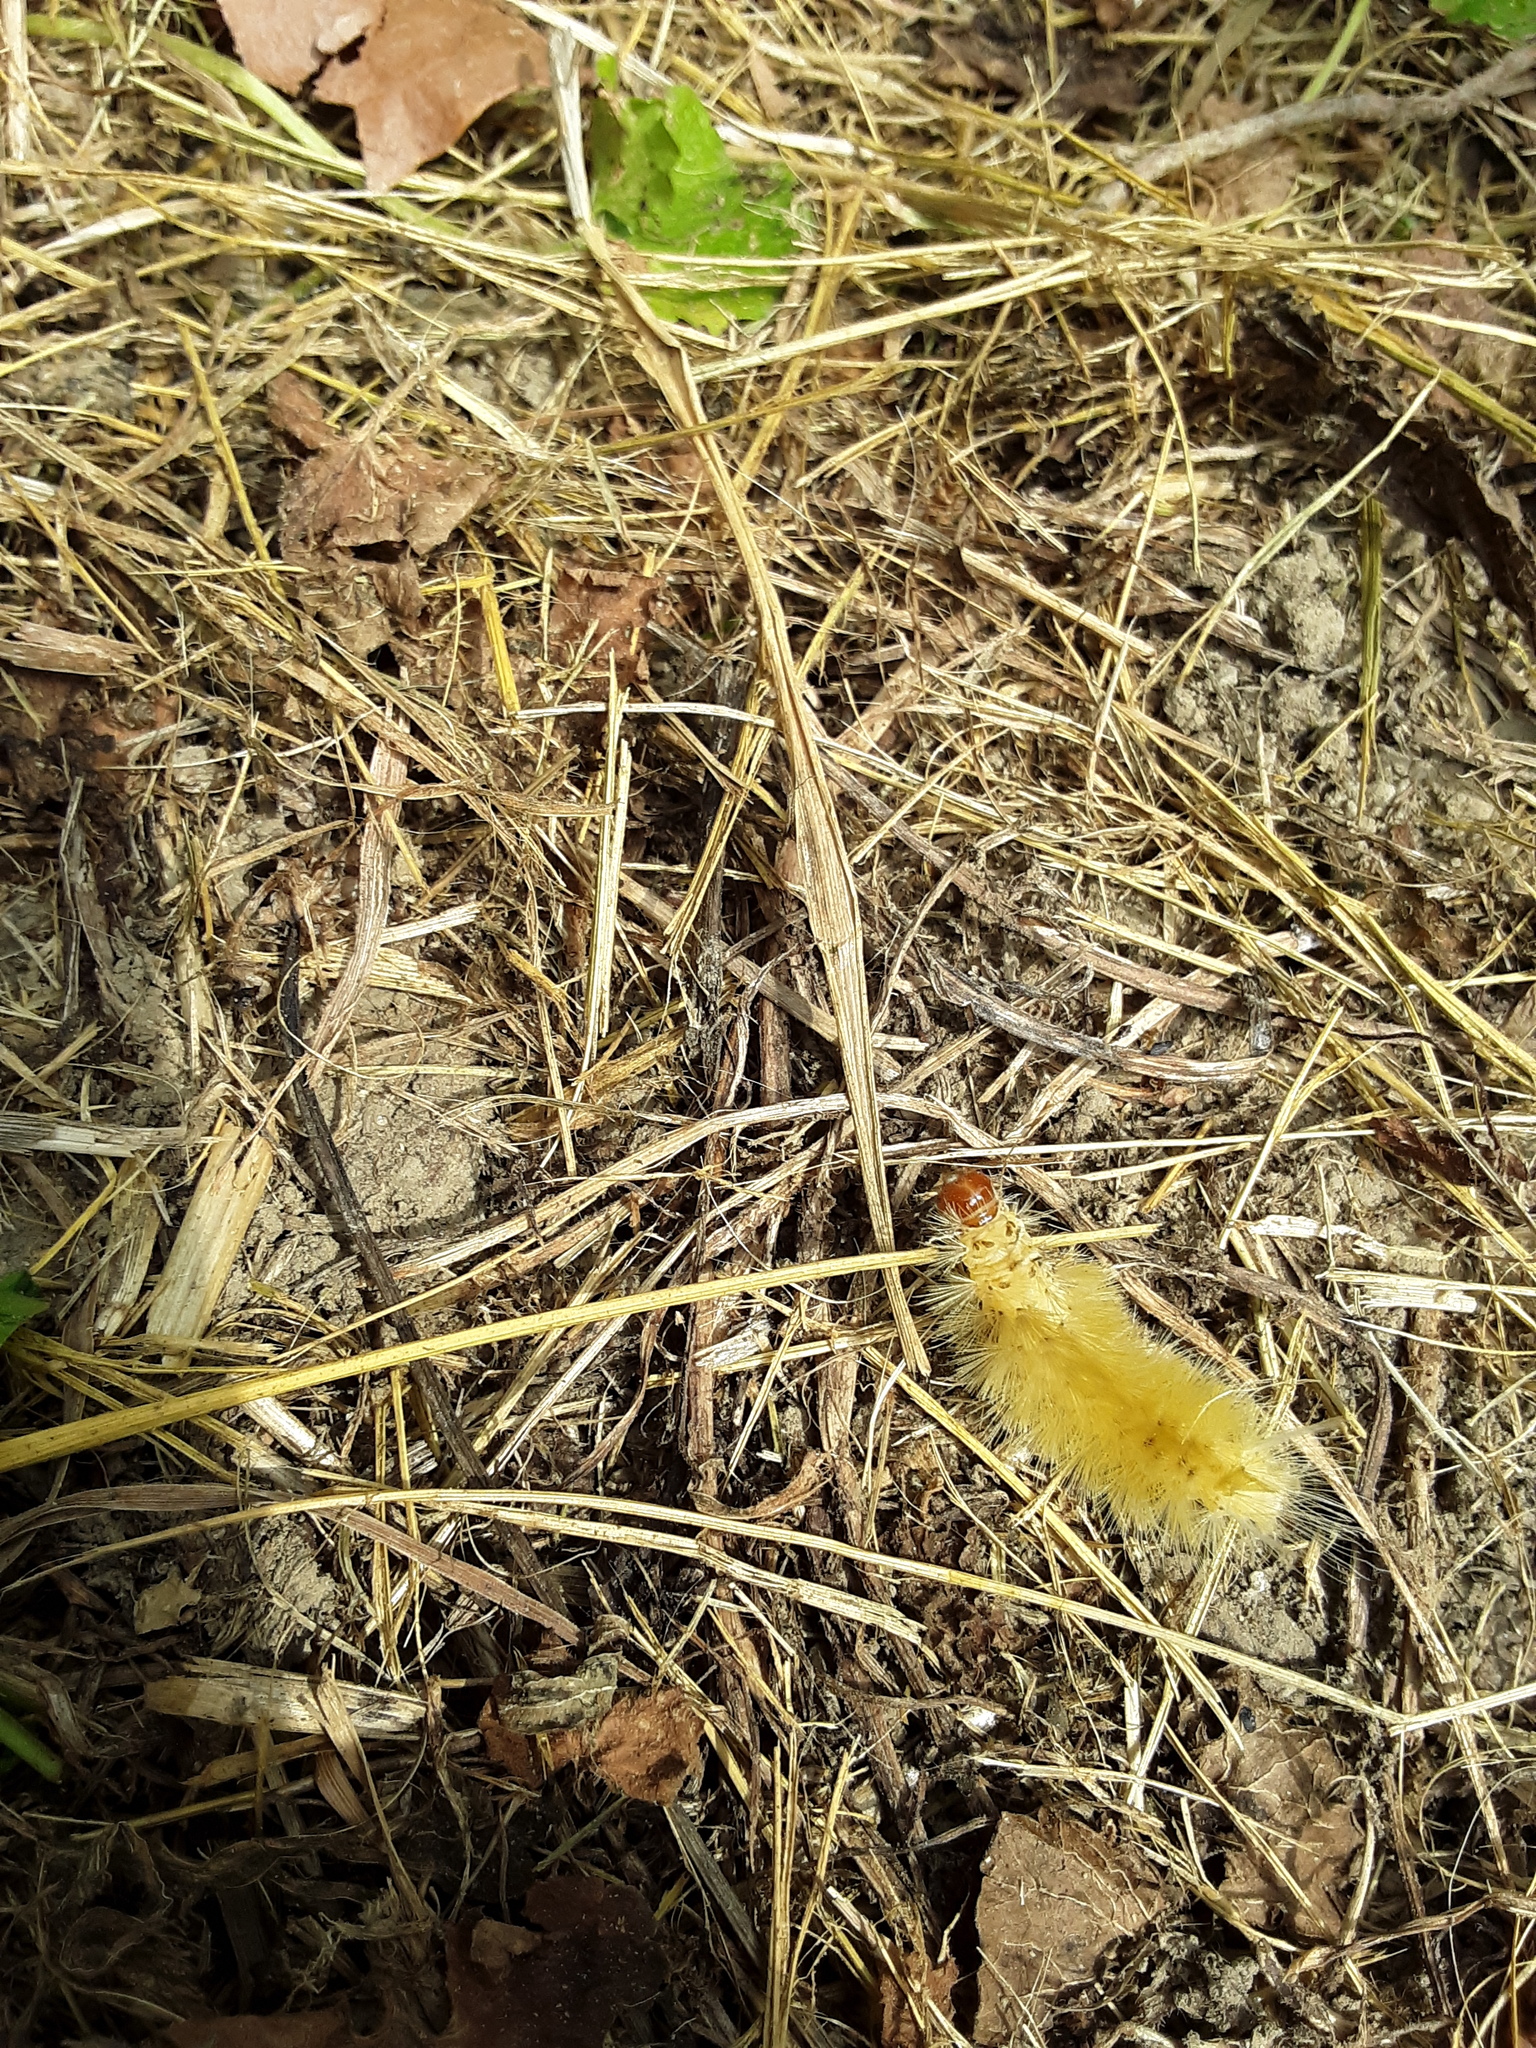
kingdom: Animalia
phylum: Arthropoda
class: Insecta
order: Lepidoptera
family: Erebidae
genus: Halysidota
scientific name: Halysidota harrisii
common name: Sycamore tussock moth
